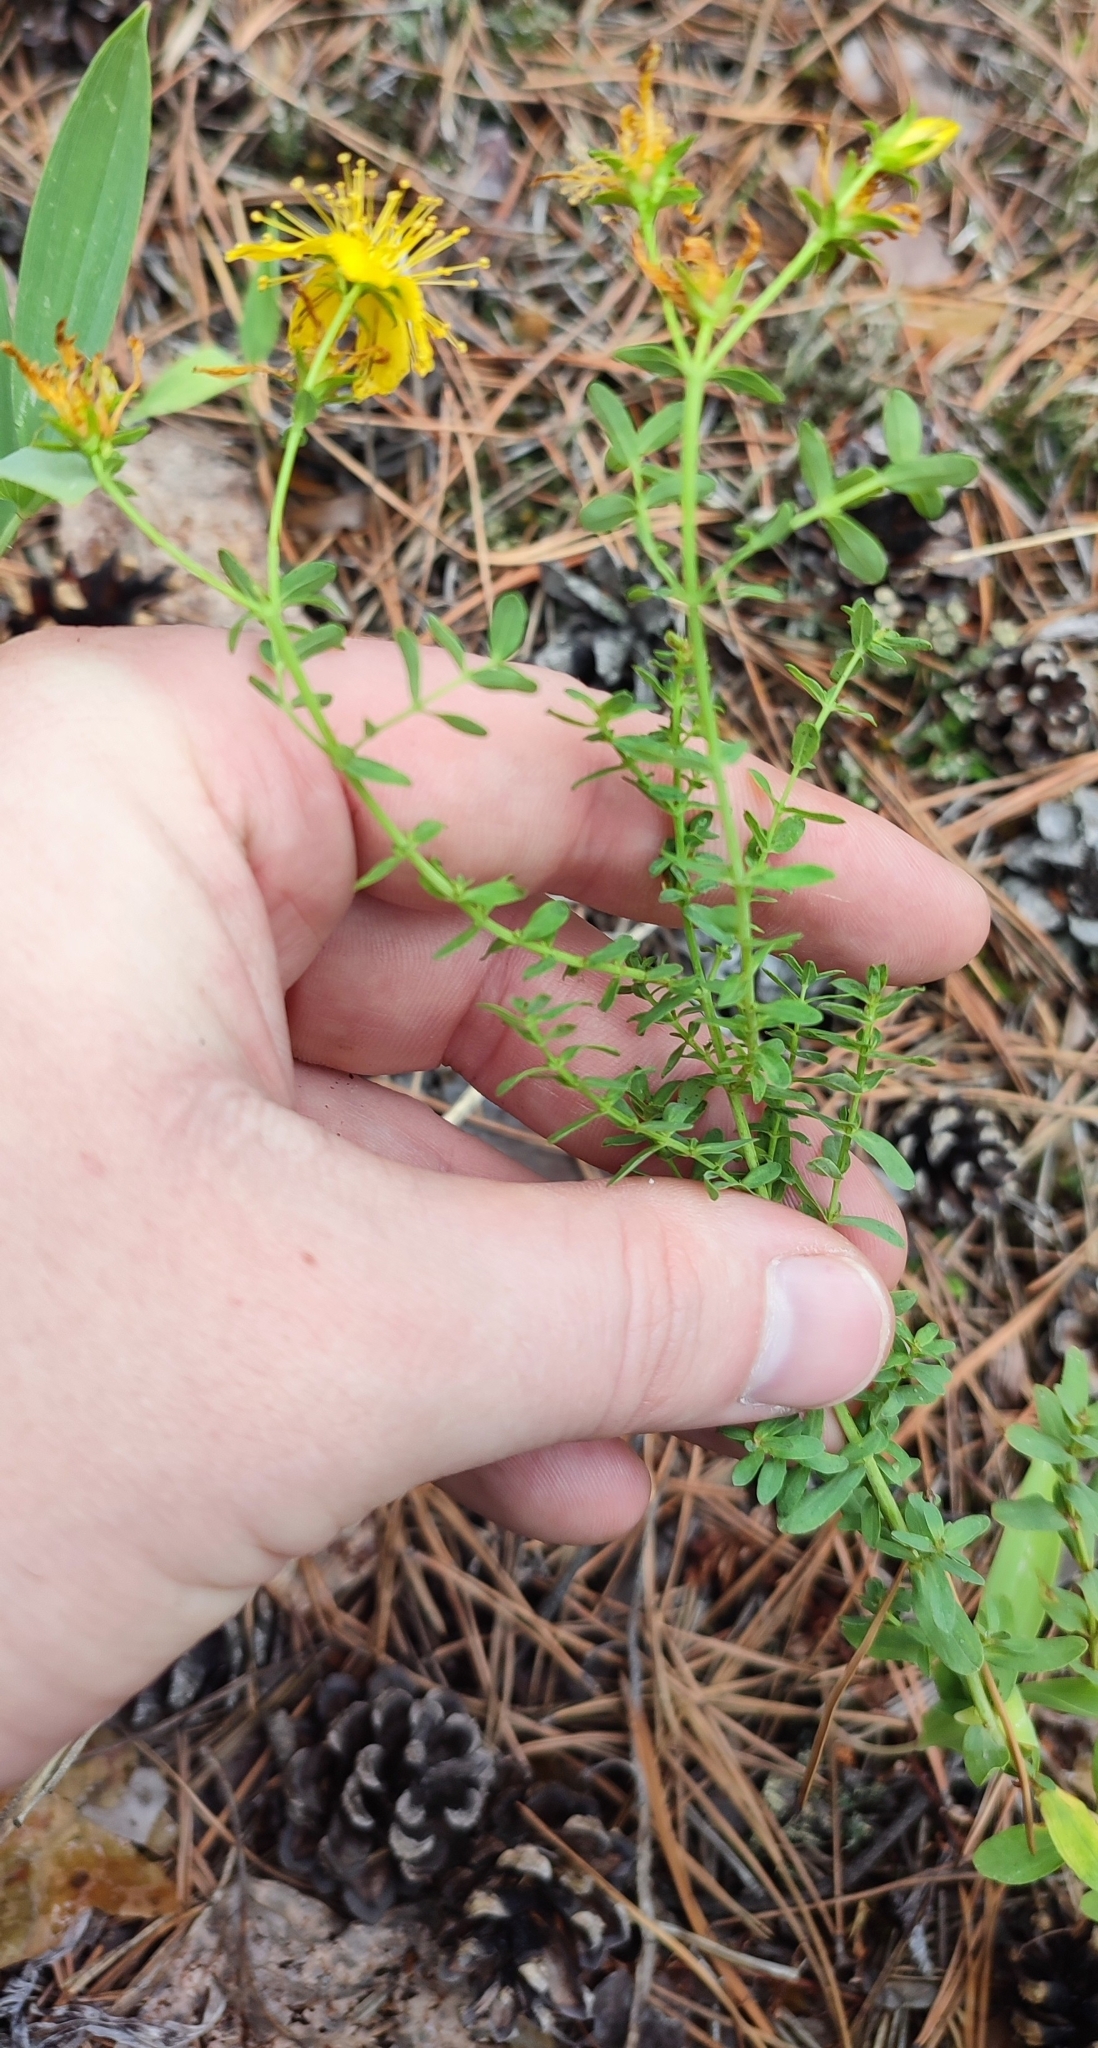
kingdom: Plantae
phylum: Tracheophyta
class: Magnoliopsida
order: Malpighiales
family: Hypericaceae
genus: Hypericum
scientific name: Hypericum perforatum
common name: Common st. johnswort
